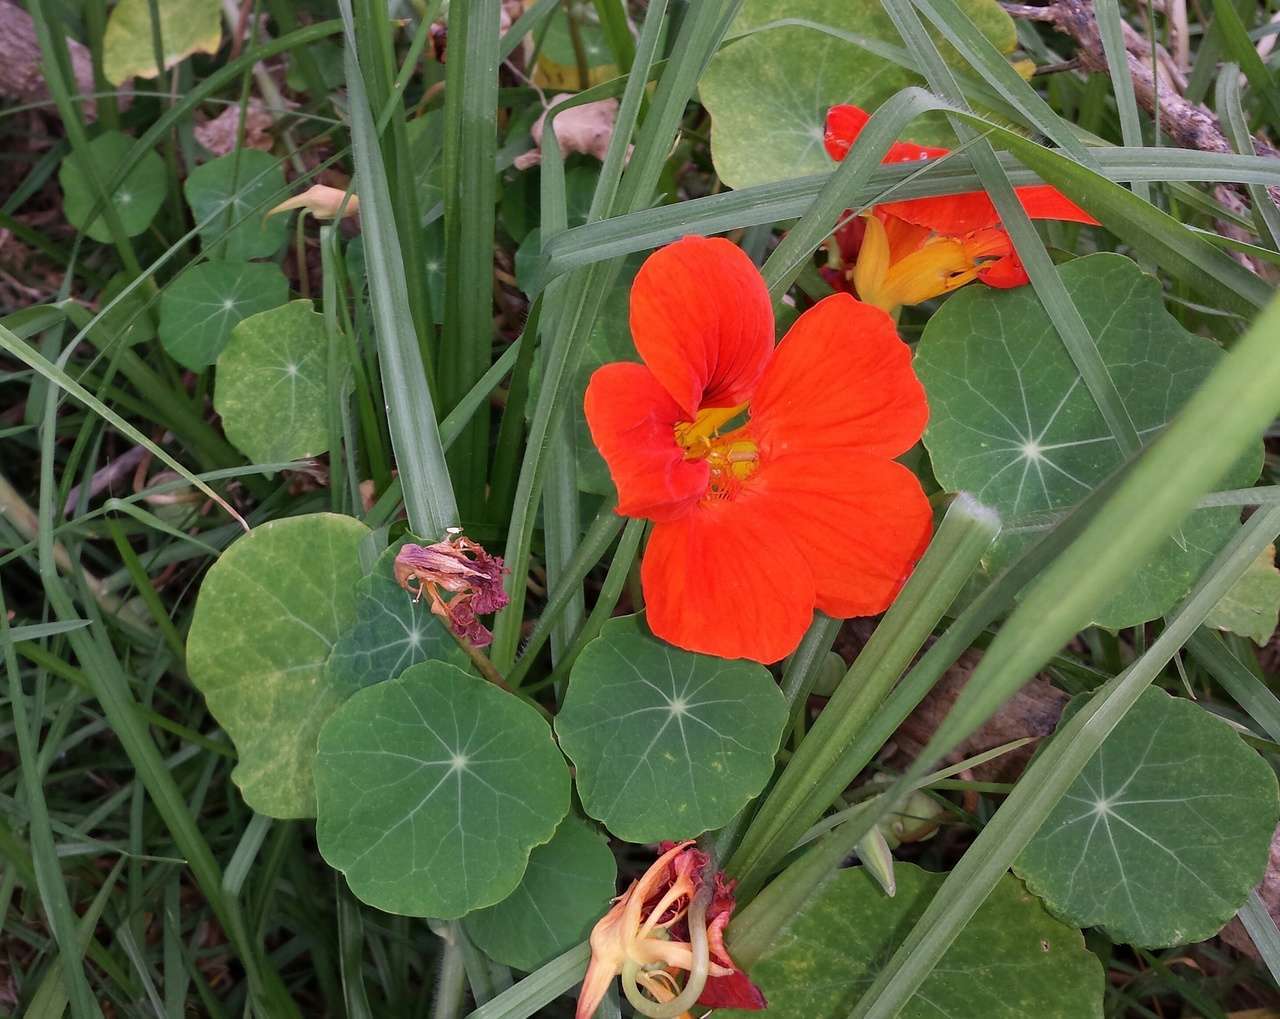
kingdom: Plantae
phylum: Tracheophyta
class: Magnoliopsida
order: Brassicales
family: Tropaeolaceae
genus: Tropaeolum
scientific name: Tropaeolum majus
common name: Nasturtium
